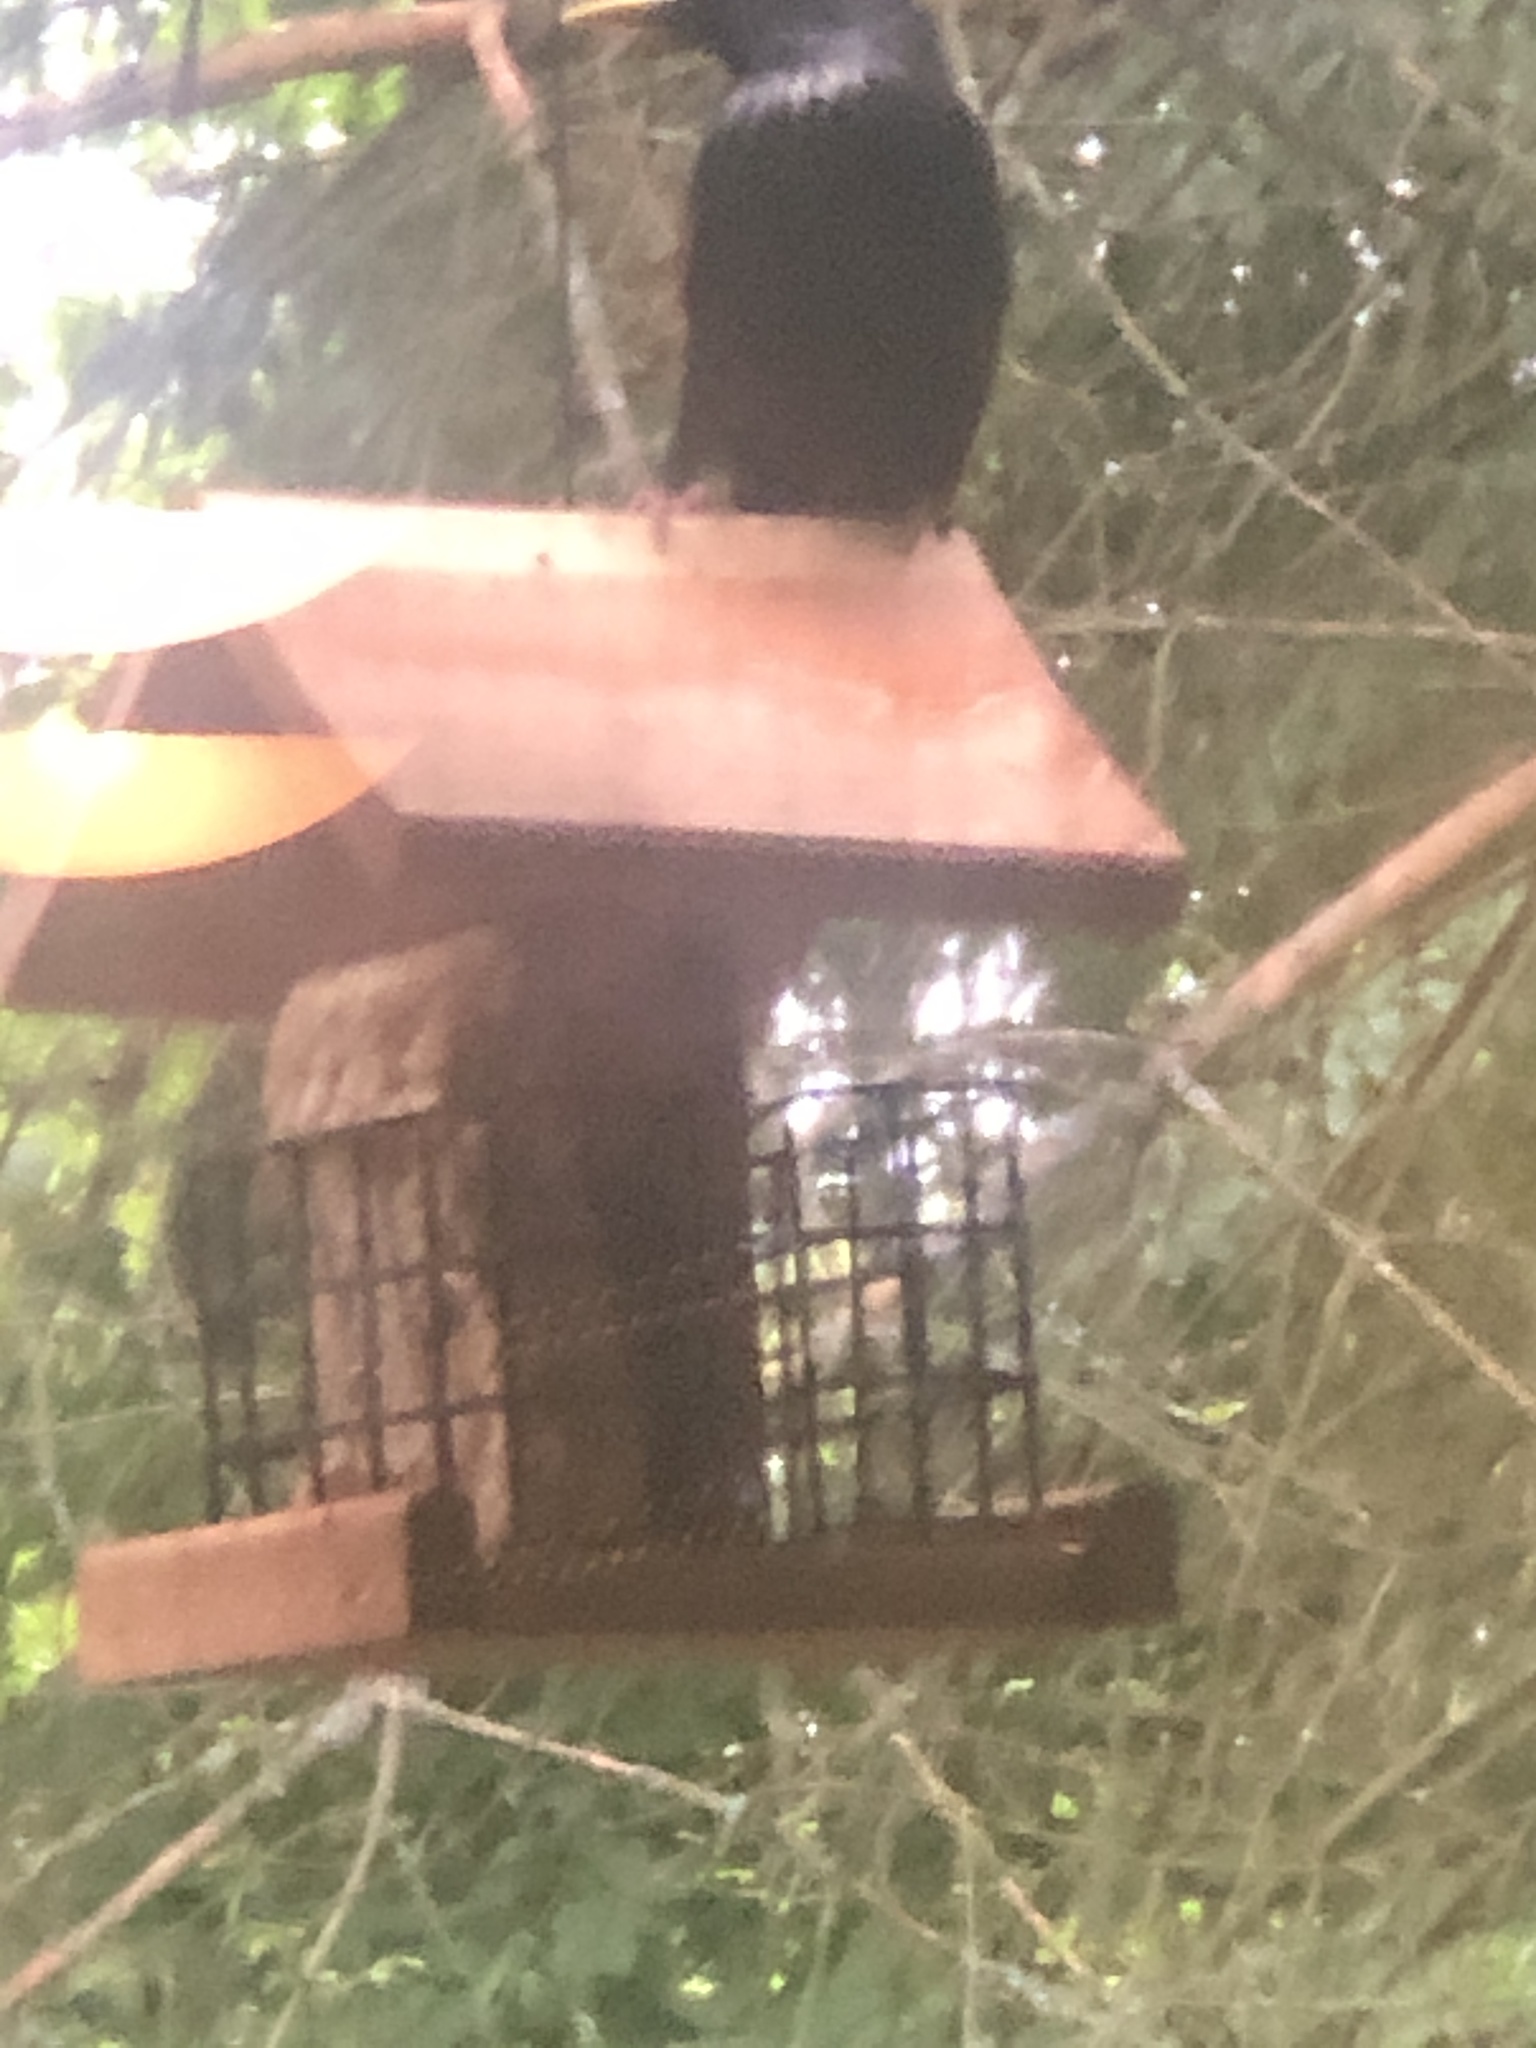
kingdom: Animalia
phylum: Chordata
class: Aves
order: Passeriformes
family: Sturnidae
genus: Sturnus
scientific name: Sturnus vulgaris
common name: Common starling
